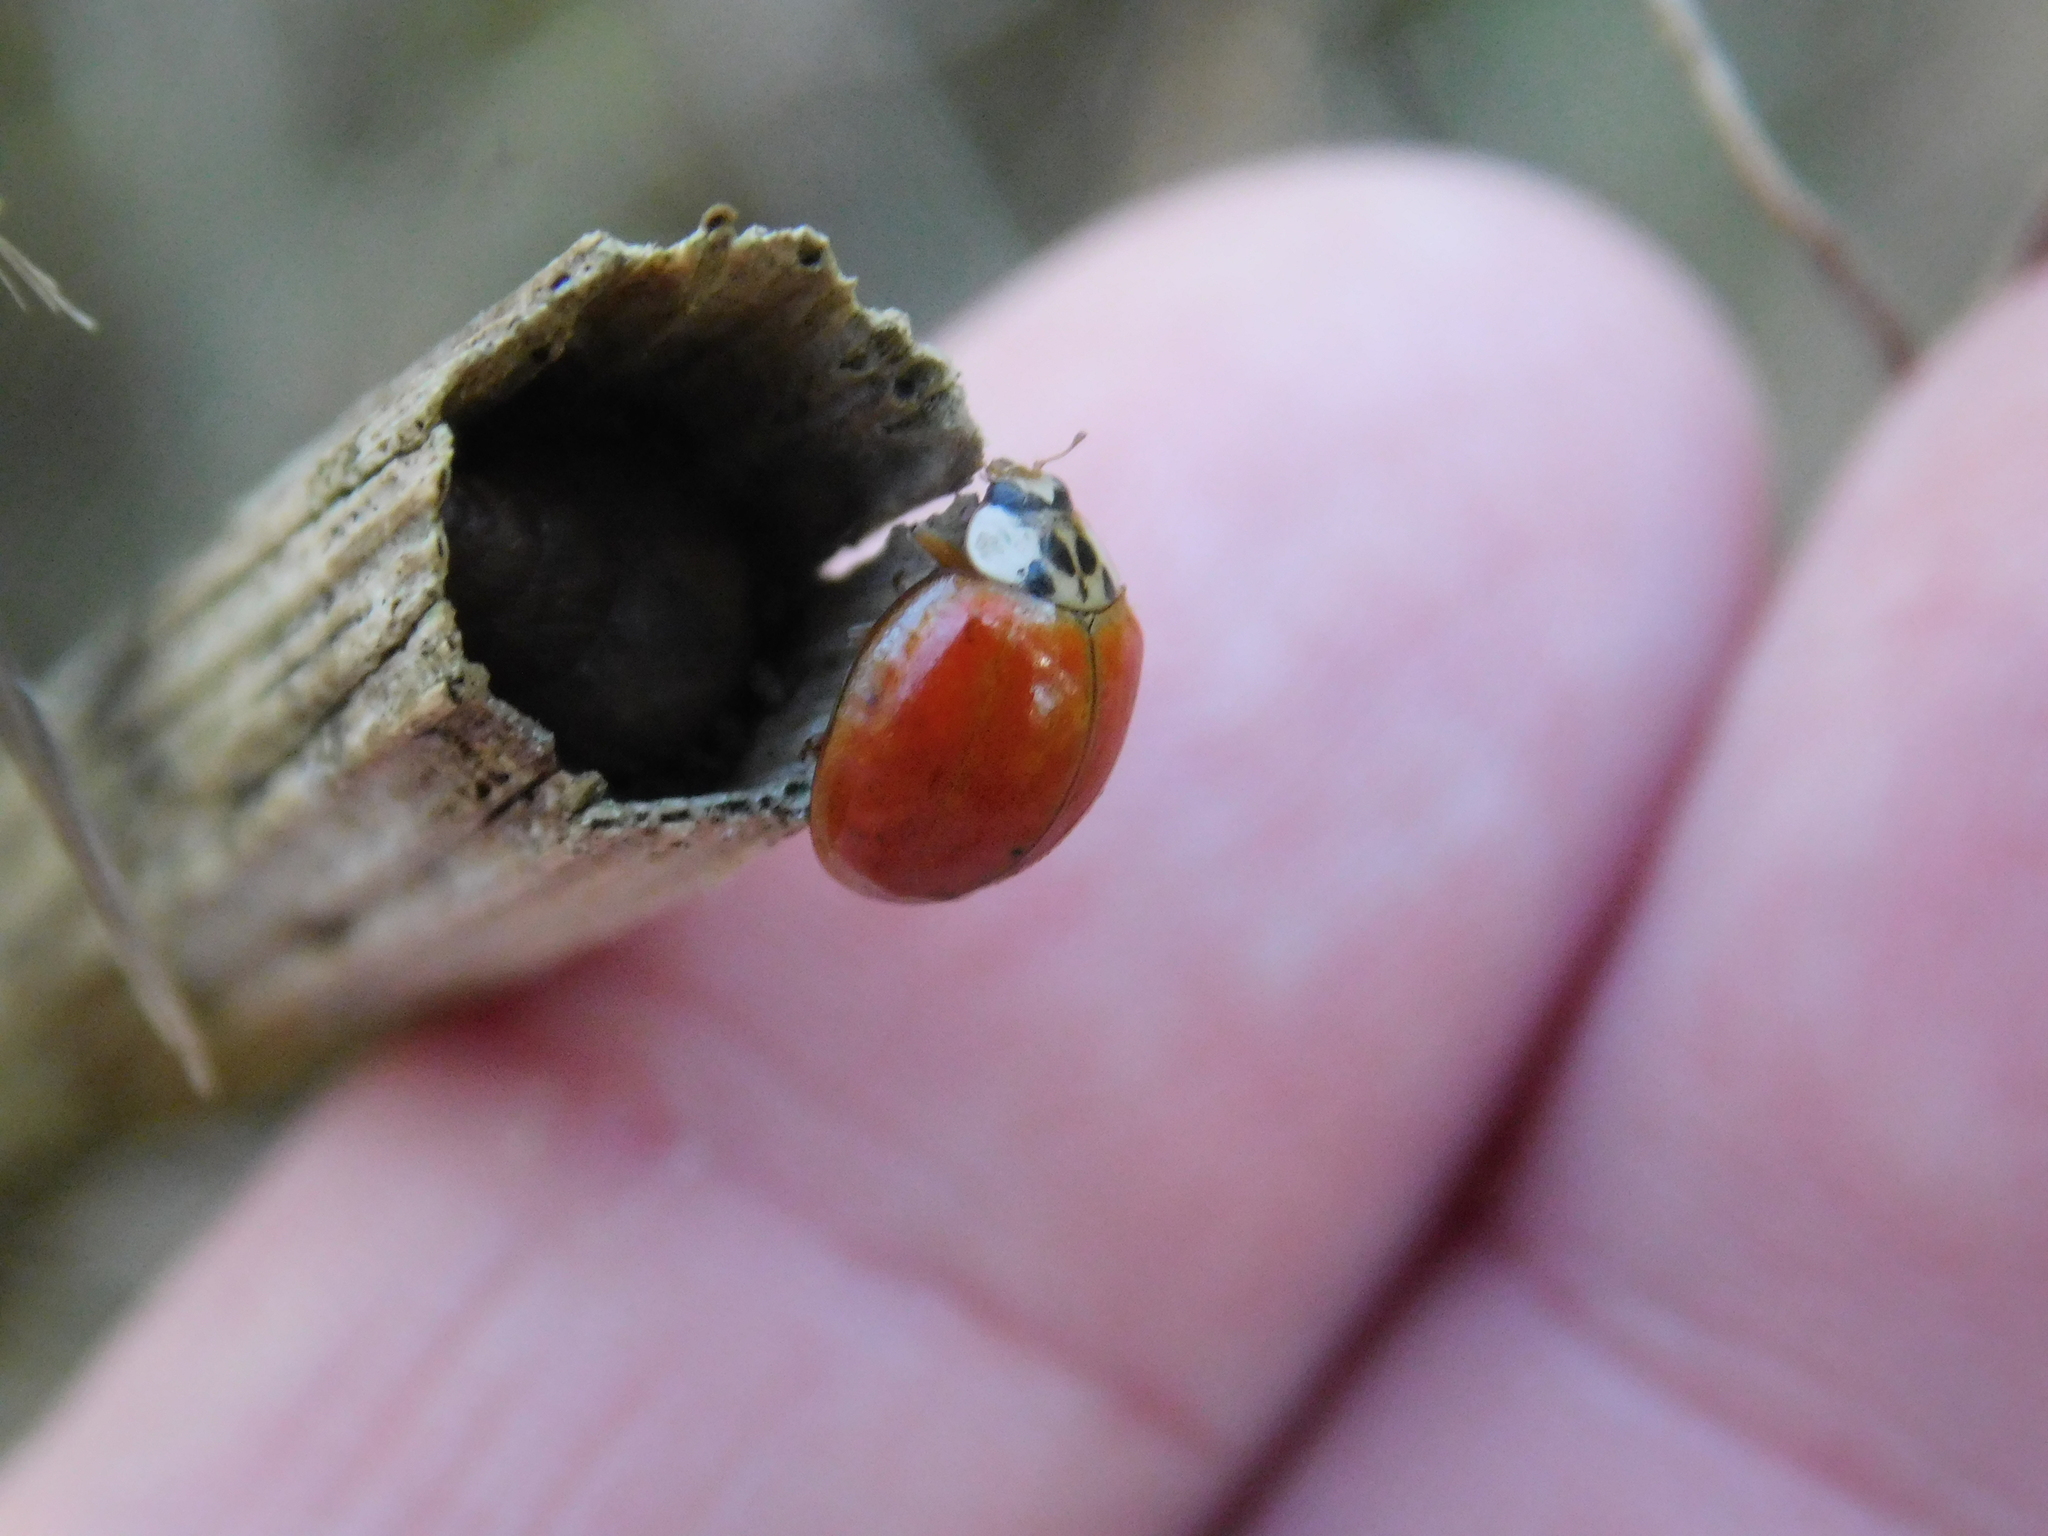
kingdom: Animalia
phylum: Arthropoda
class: Insecta
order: Coleoptera
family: Coccinellidae
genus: Harmonia
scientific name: Harmonia axyridis
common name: Harlequin ladybird
